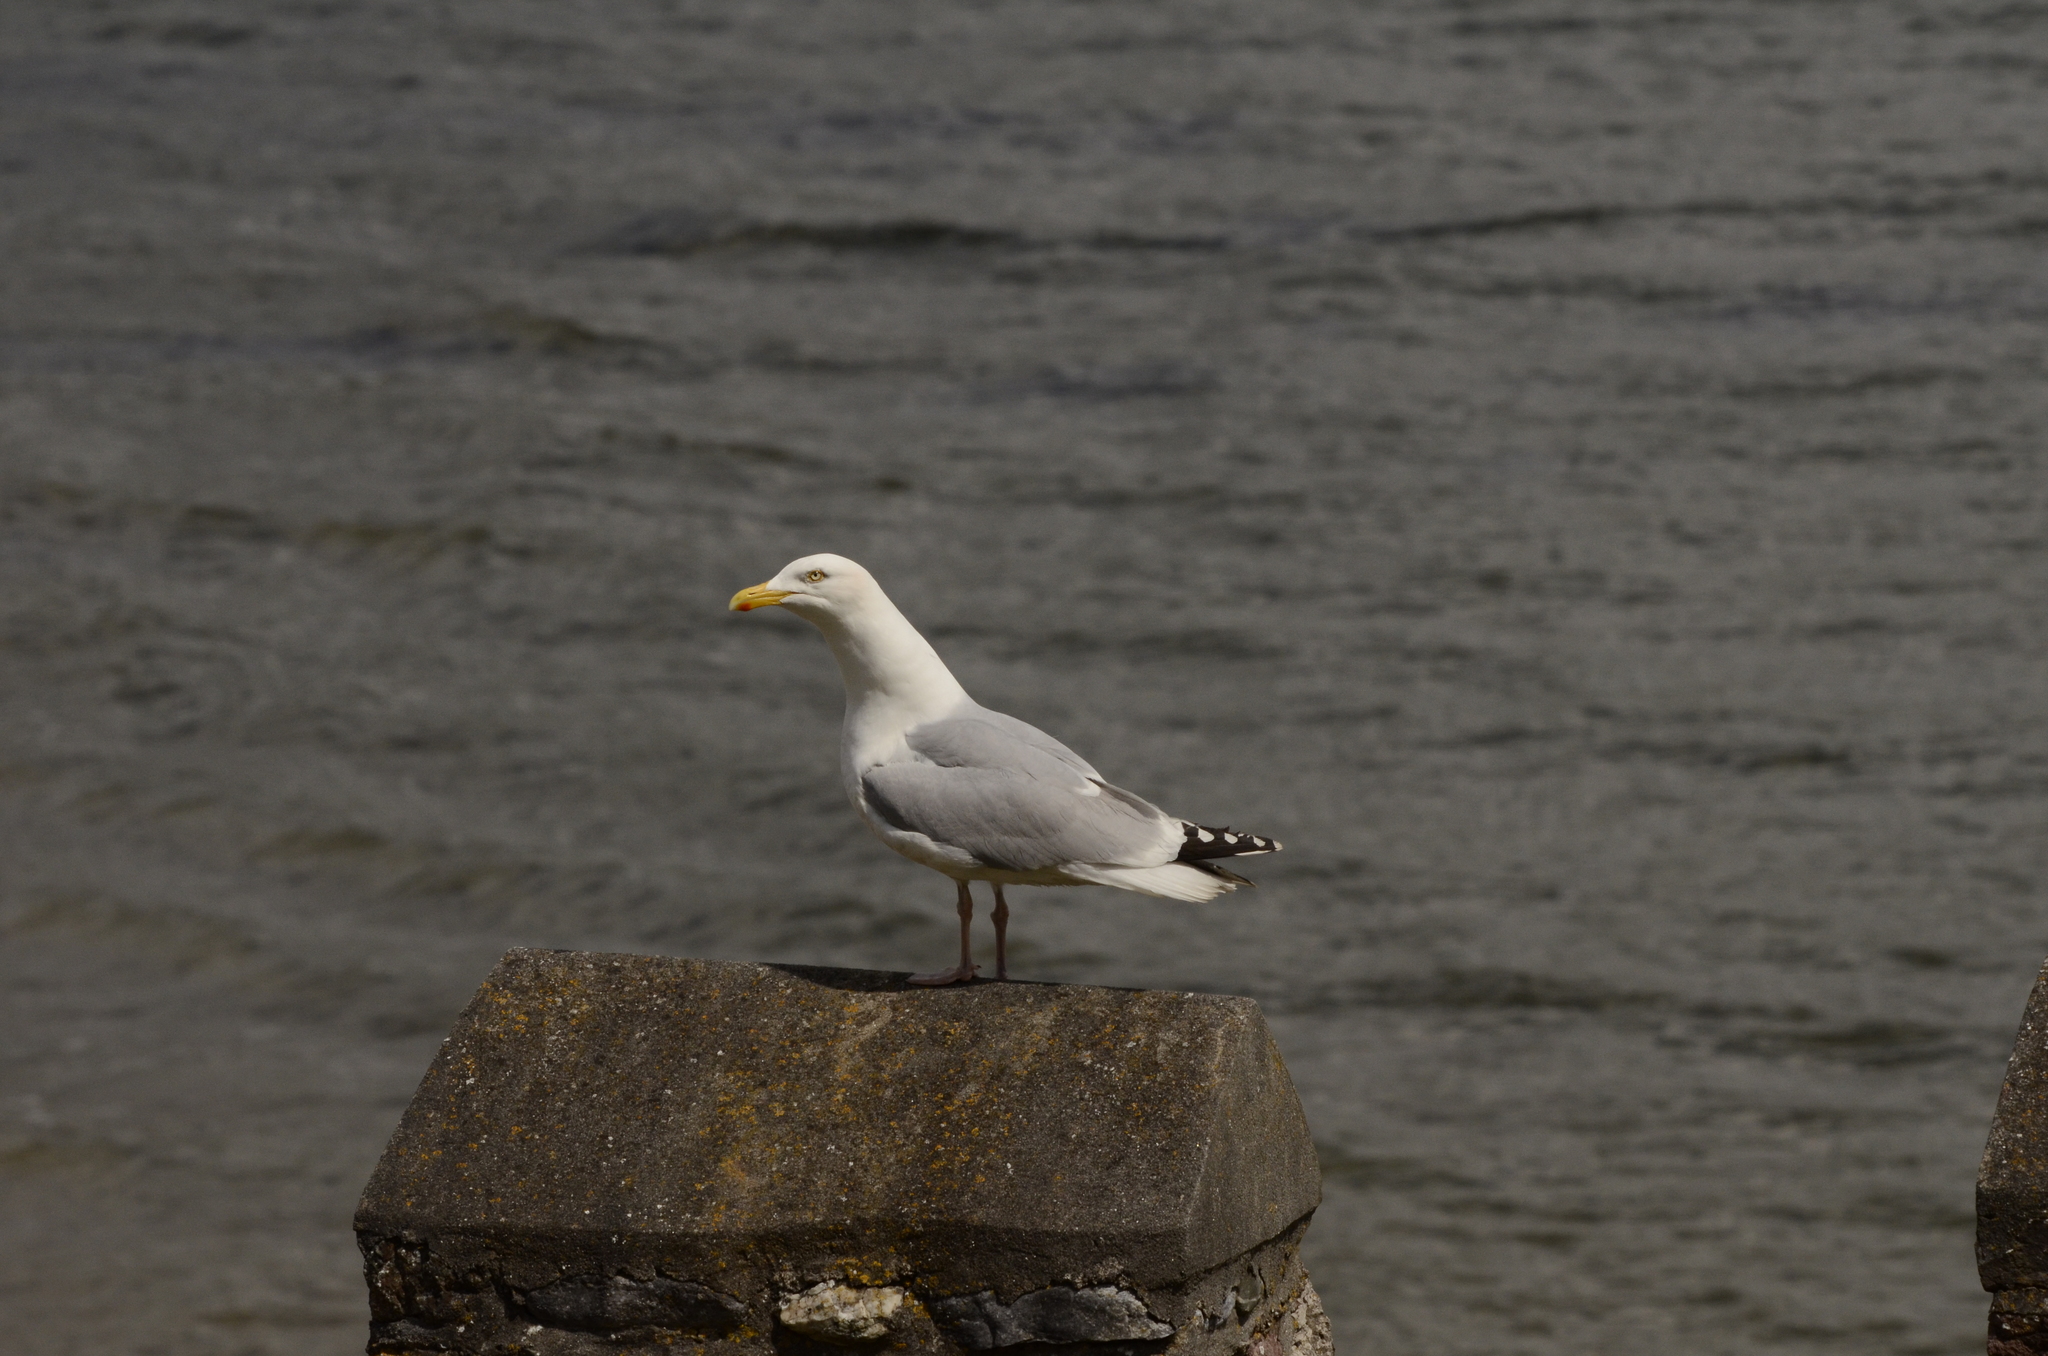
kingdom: Animalia
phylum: Chordata
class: Aves
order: Charadriiformes
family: Laridae
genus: Larus
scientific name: Larus argentatus
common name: Herring gull
